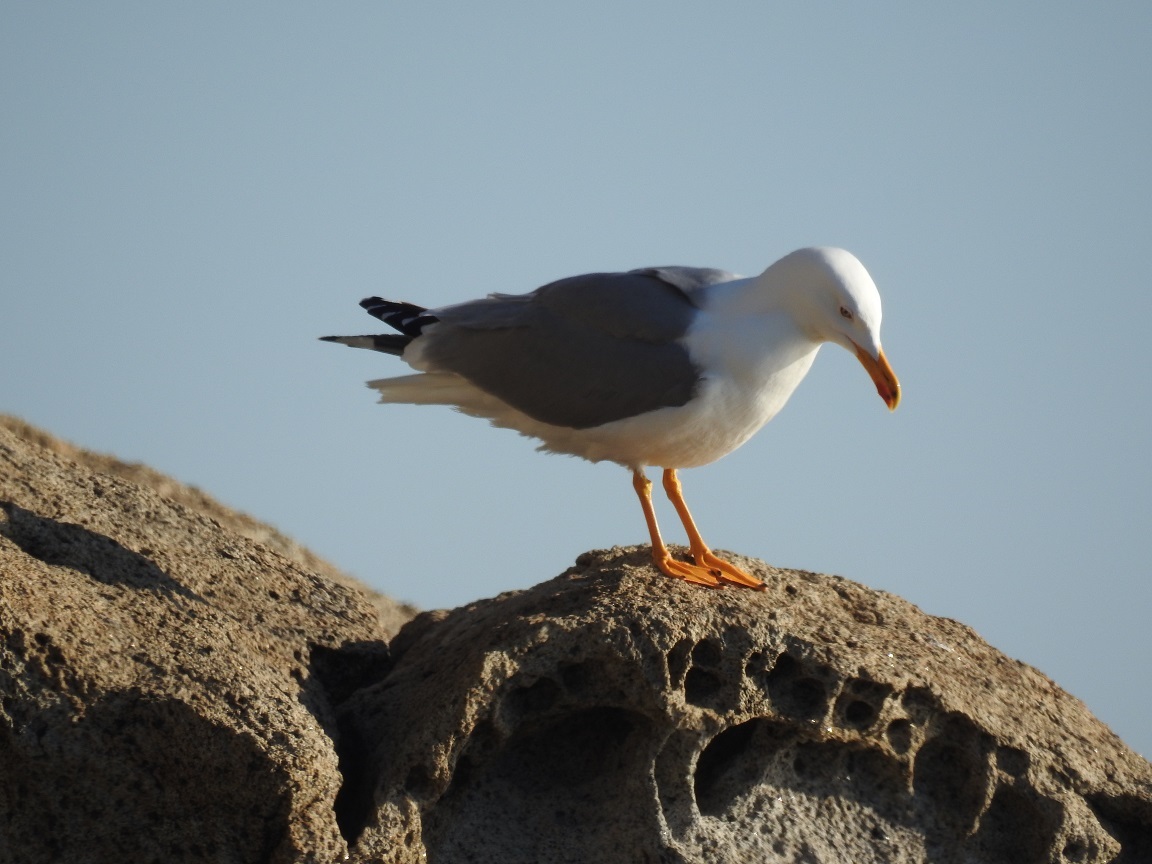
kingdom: Animalia
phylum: Chordata
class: Aves
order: Charadriiformes
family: Laridae
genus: Larus
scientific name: Larus michahellis
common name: Yellow-legged gull
